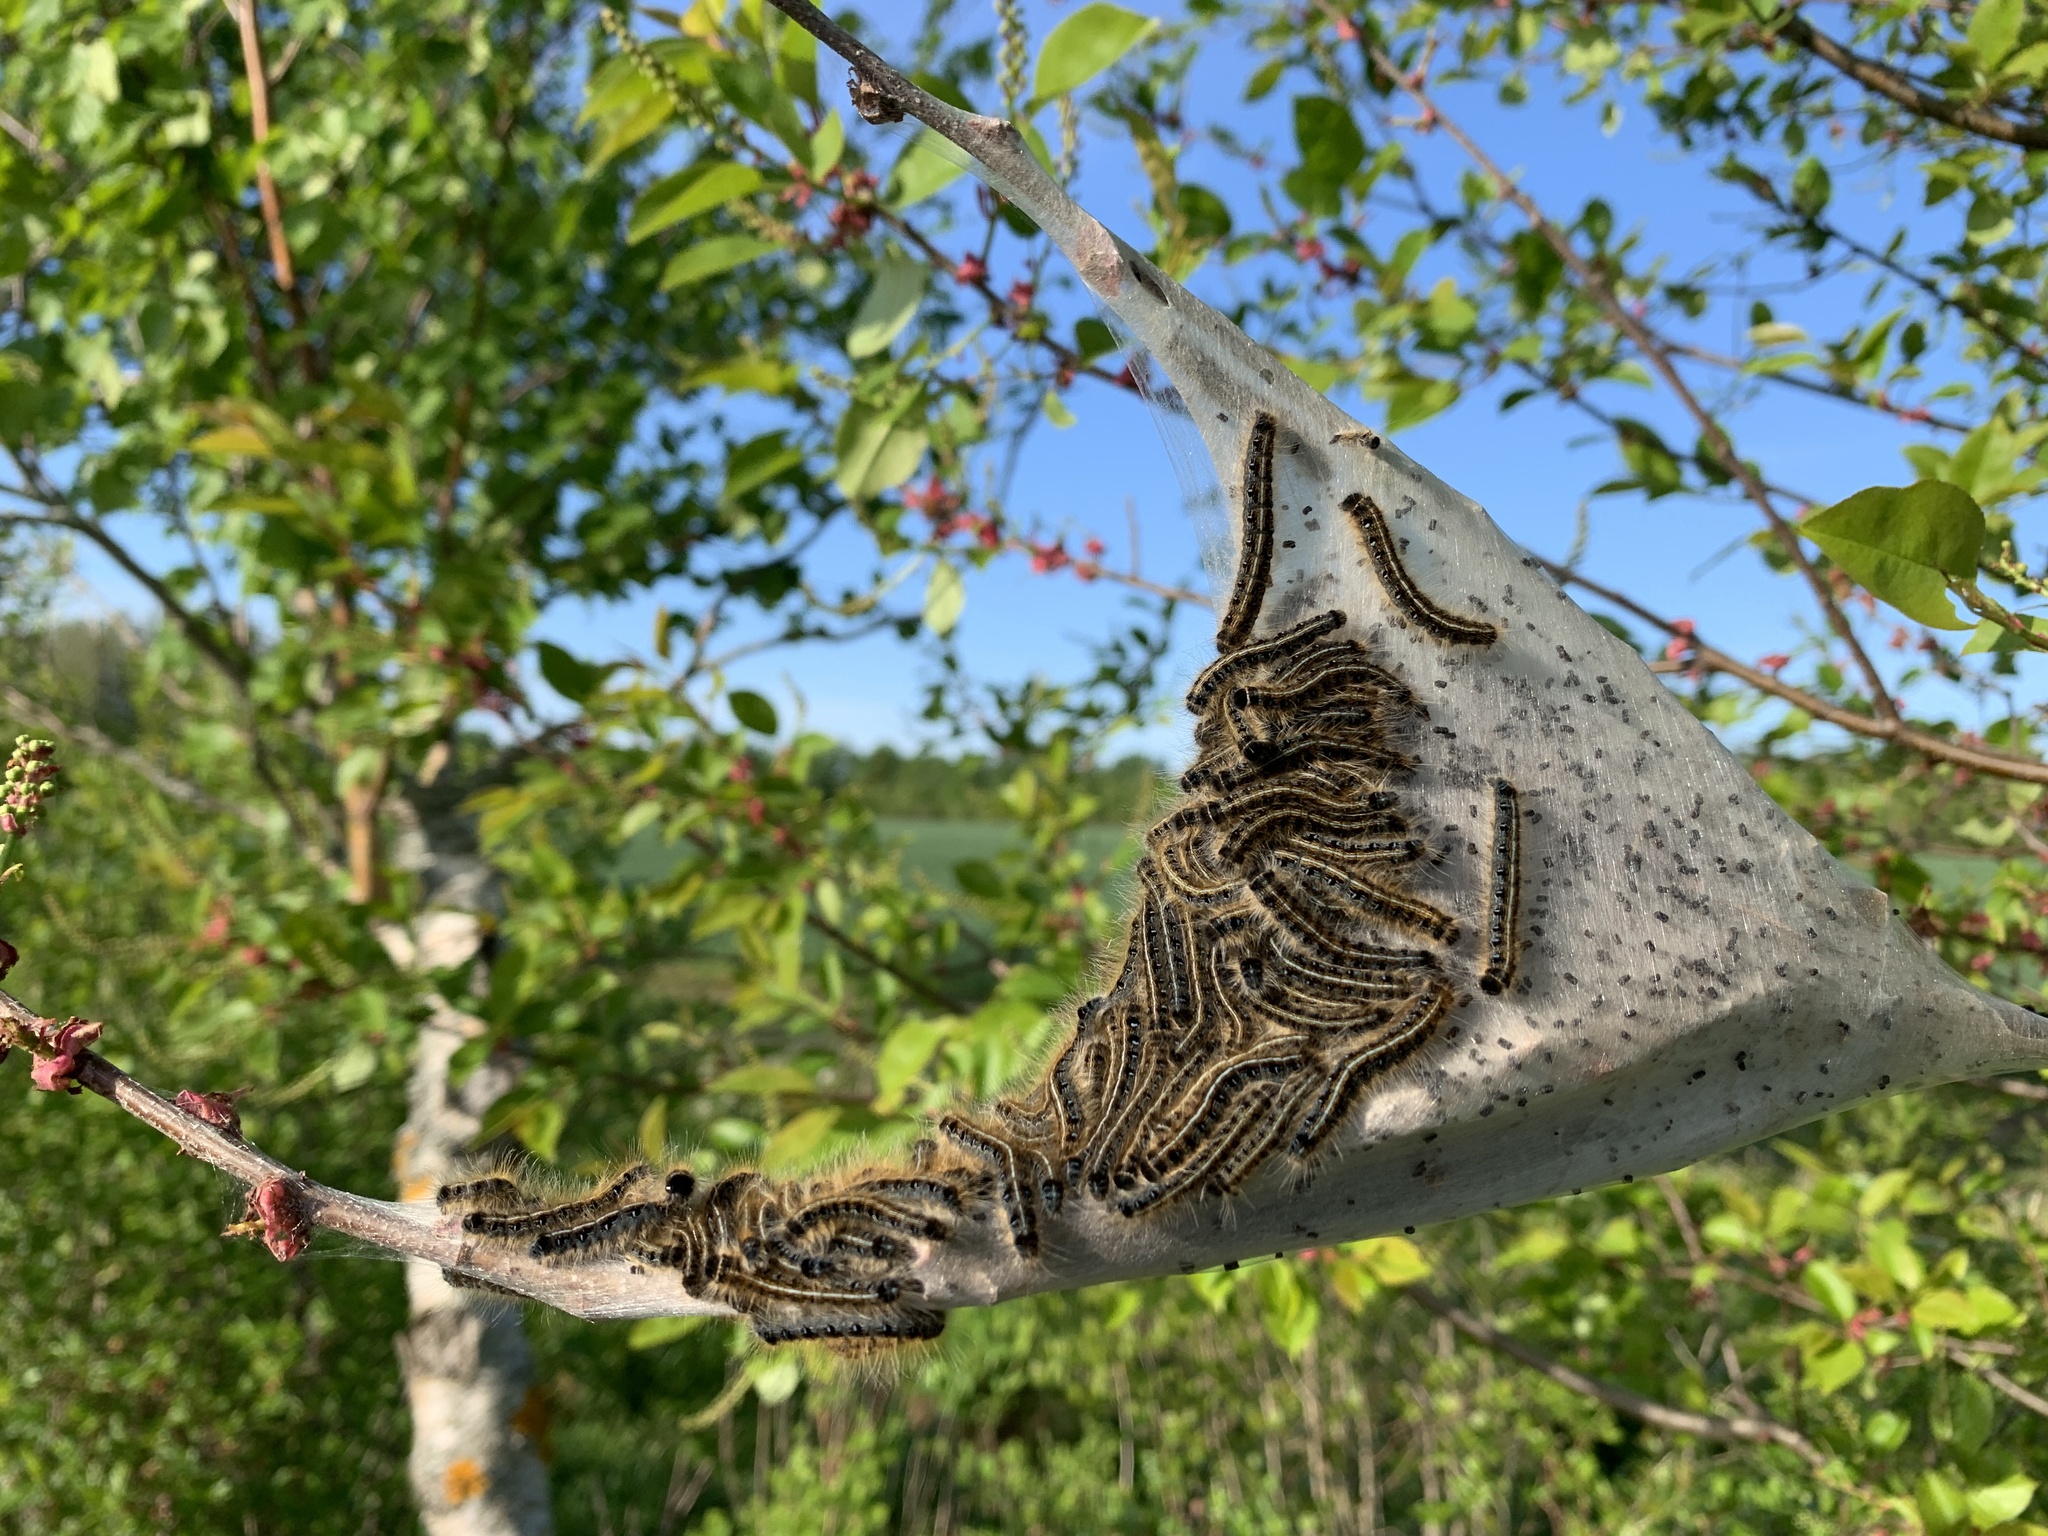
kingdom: Animalia
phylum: Arthropoda
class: Insecta
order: Lepidoptera
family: Lasiocampidae
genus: Malacosoma
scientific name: Malacosoma americana
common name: Eastern tent caterpillar moth
